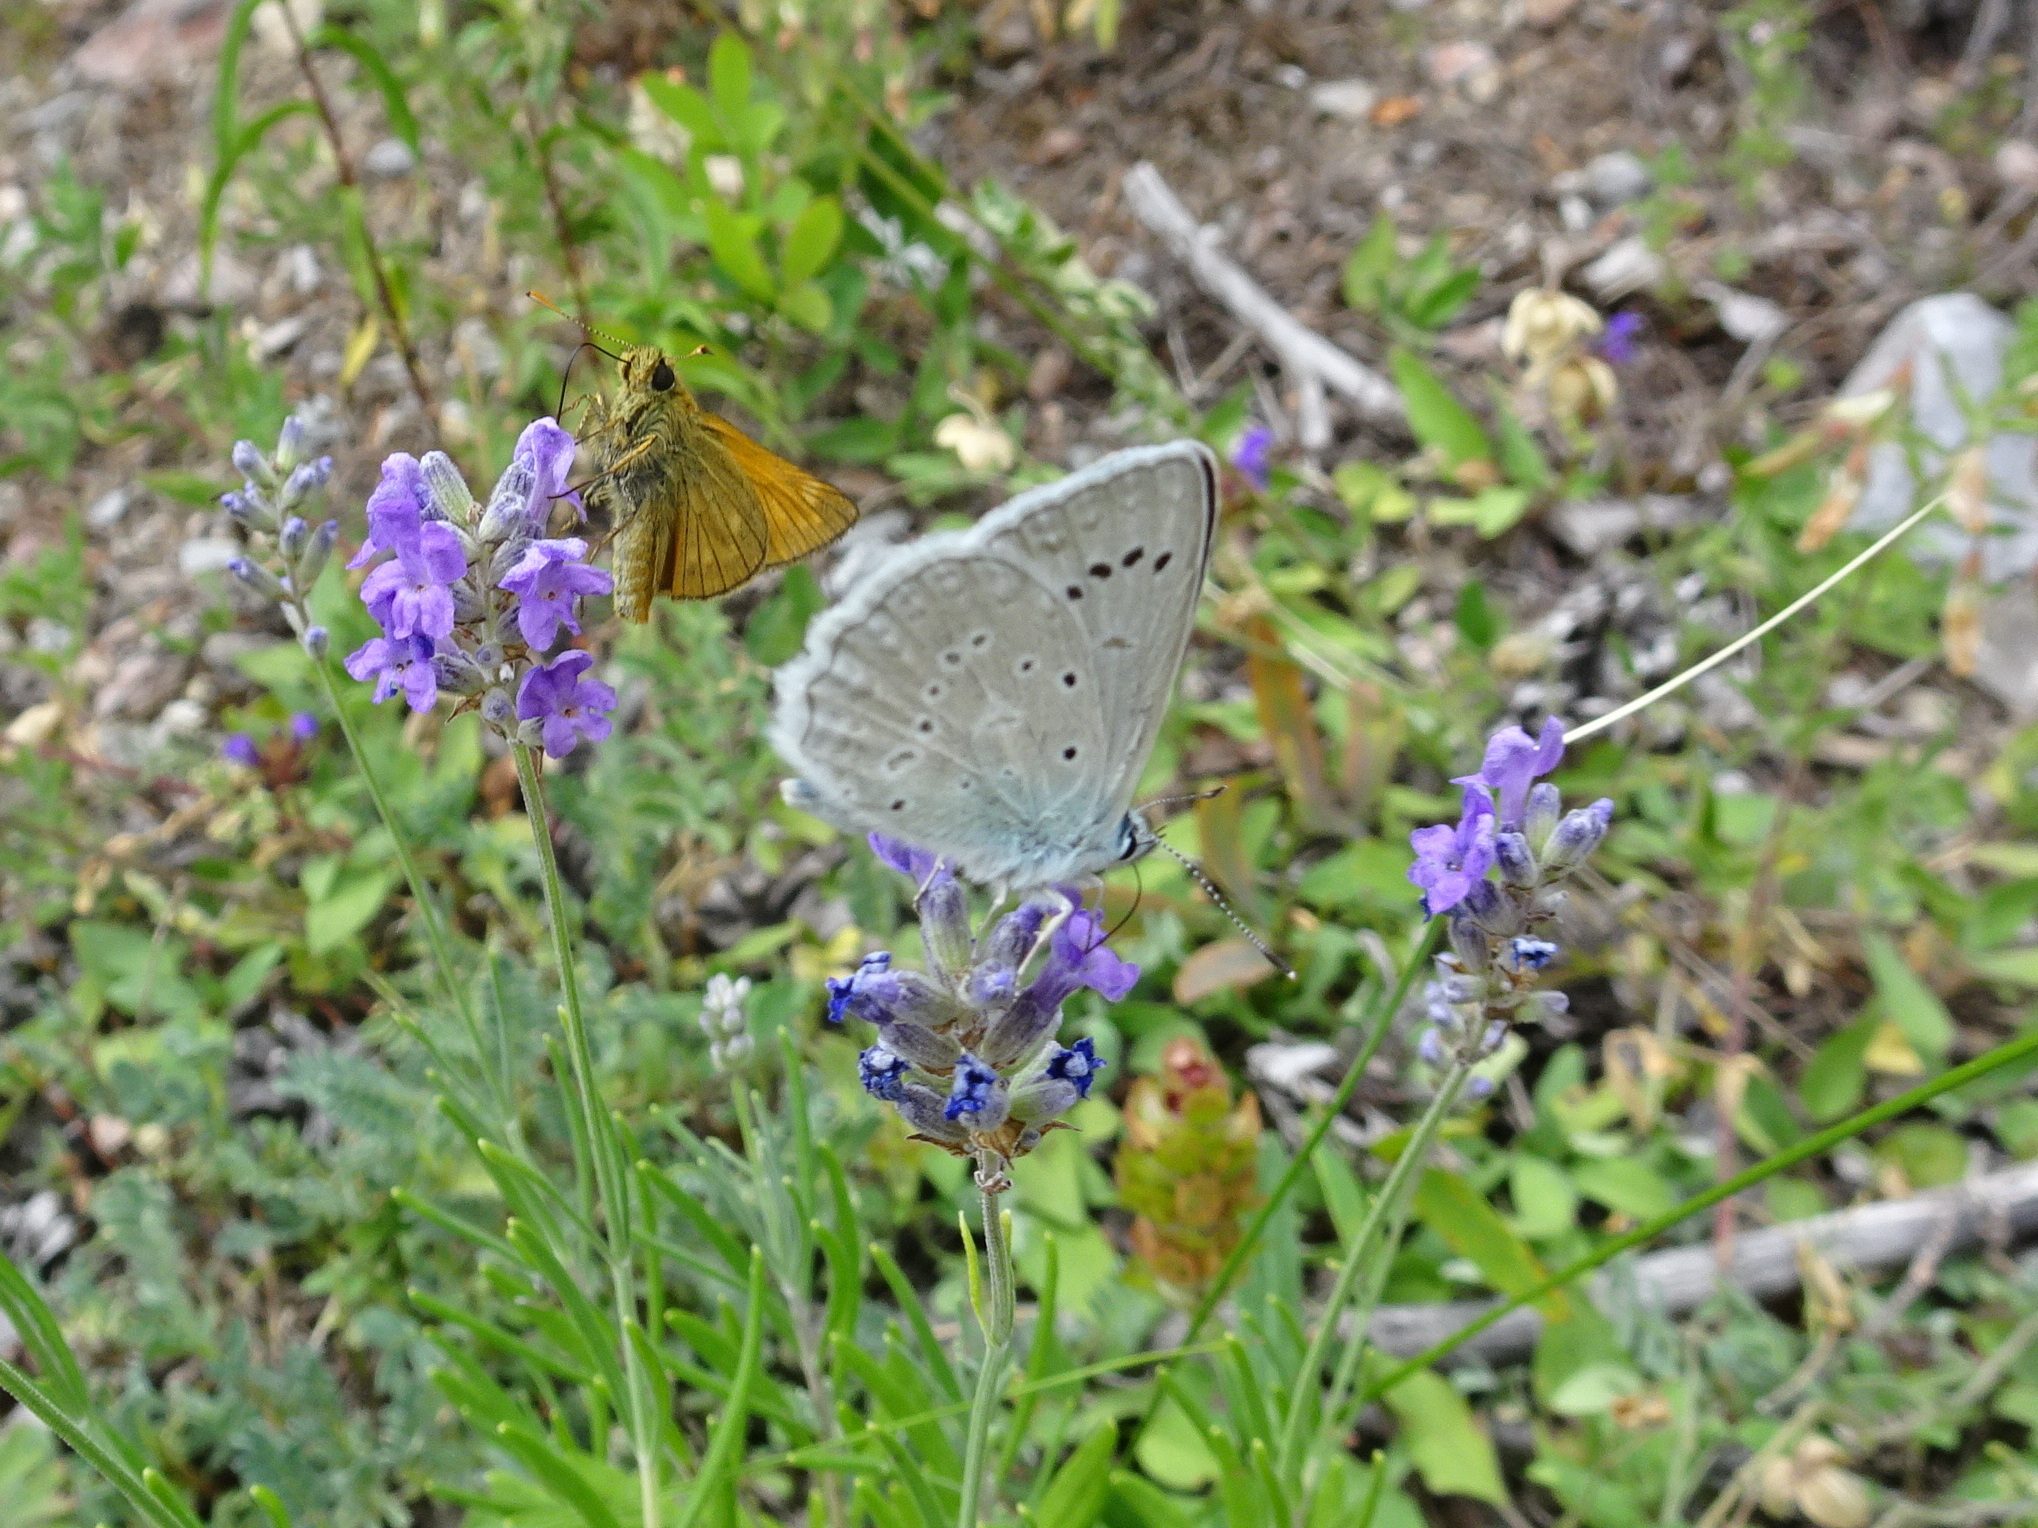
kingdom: Animalia
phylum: Arthropoda
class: Insecta
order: Lepidoptera
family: Lycaenidae
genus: Polyommatus
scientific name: Polyommatus daphnis
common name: Meleager's blue
